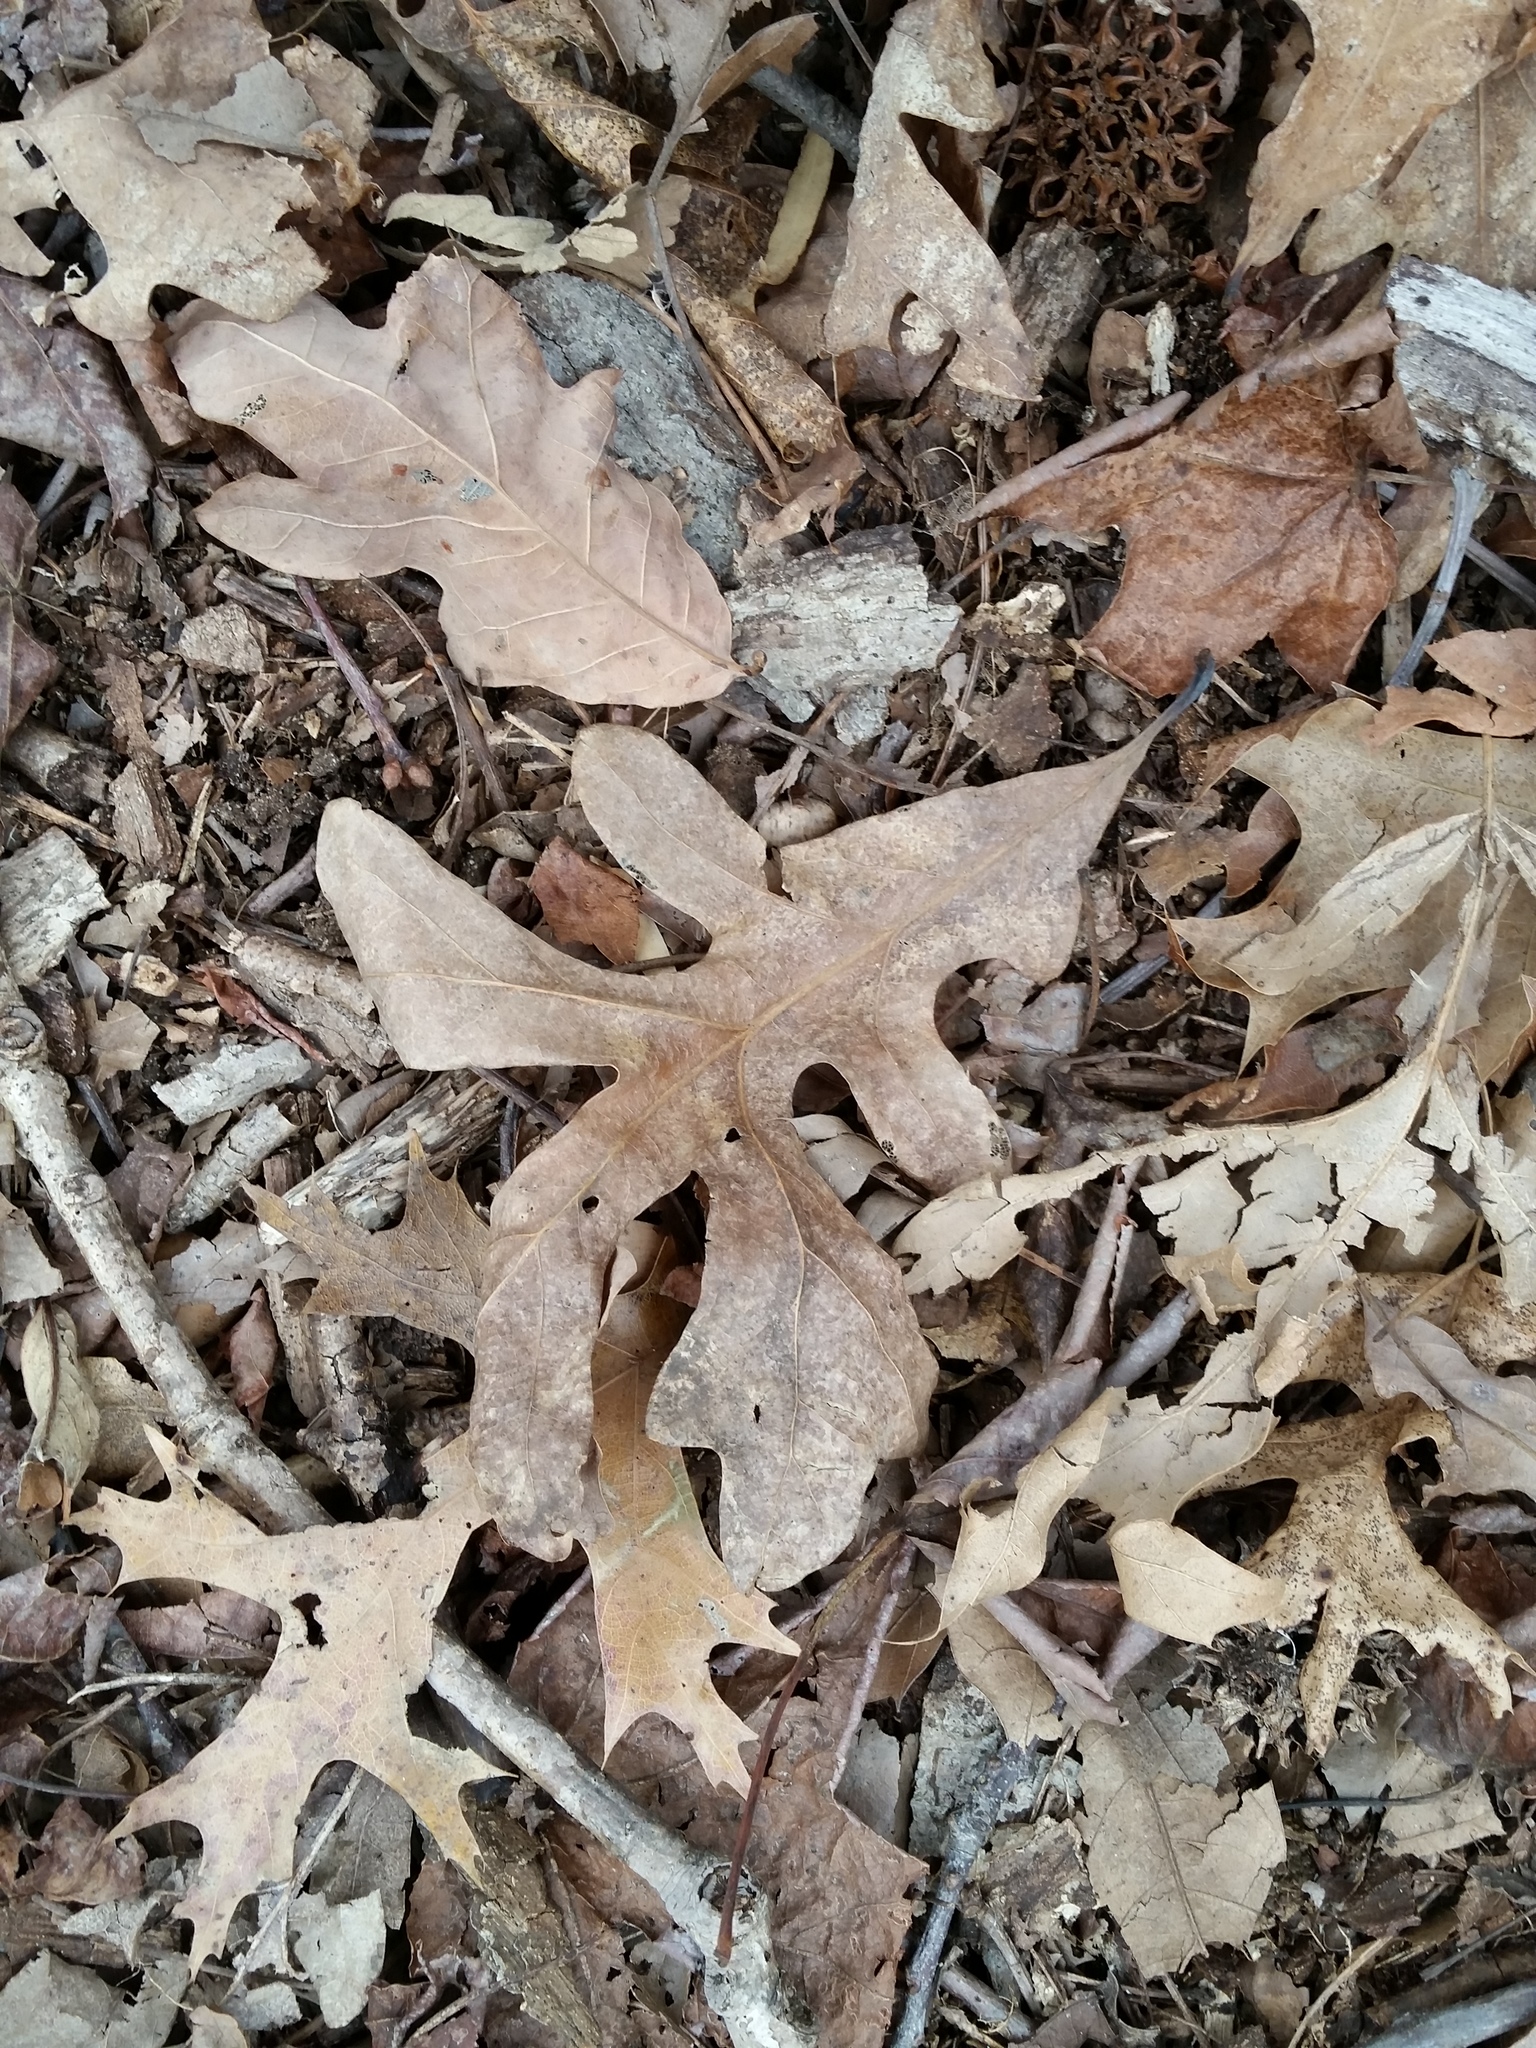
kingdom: Plantae
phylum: Tracheophyta
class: Magnoliopsida
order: Fagales
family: Fagaceae
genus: Quercus
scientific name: Quercus alba
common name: White oak
